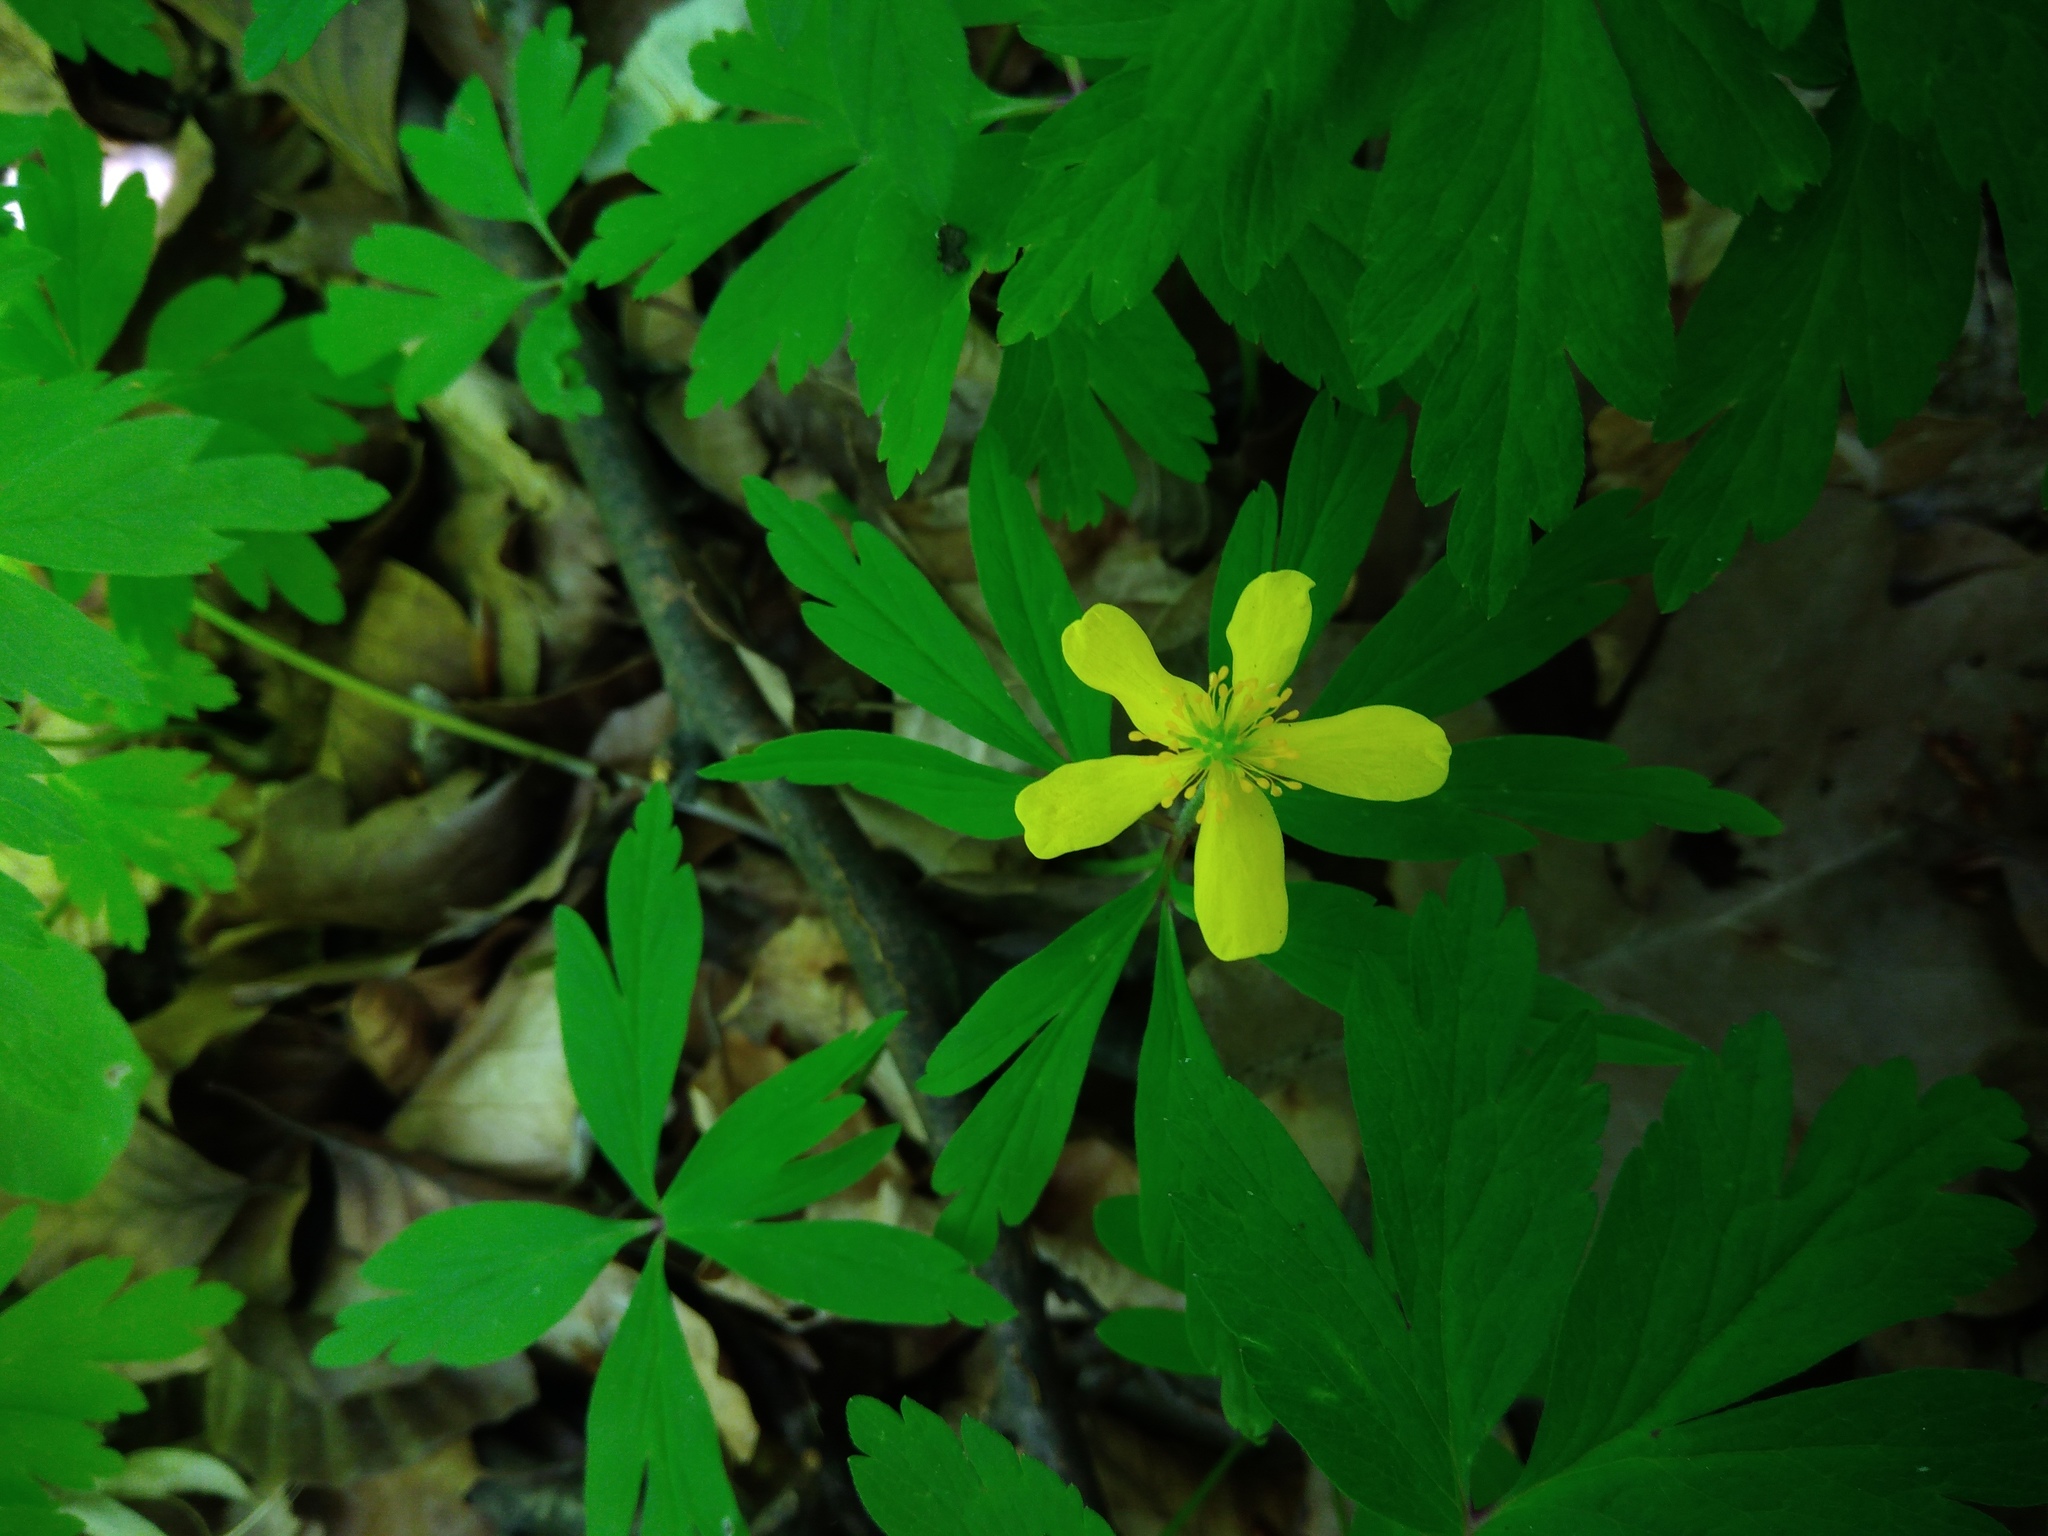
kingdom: Plantae
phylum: Tracheophyta
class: Magnoliopsida
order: Ranunculales
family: Ranunculaceae
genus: Anemone
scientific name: Anemone ranunculoides
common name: Yellow anemone
